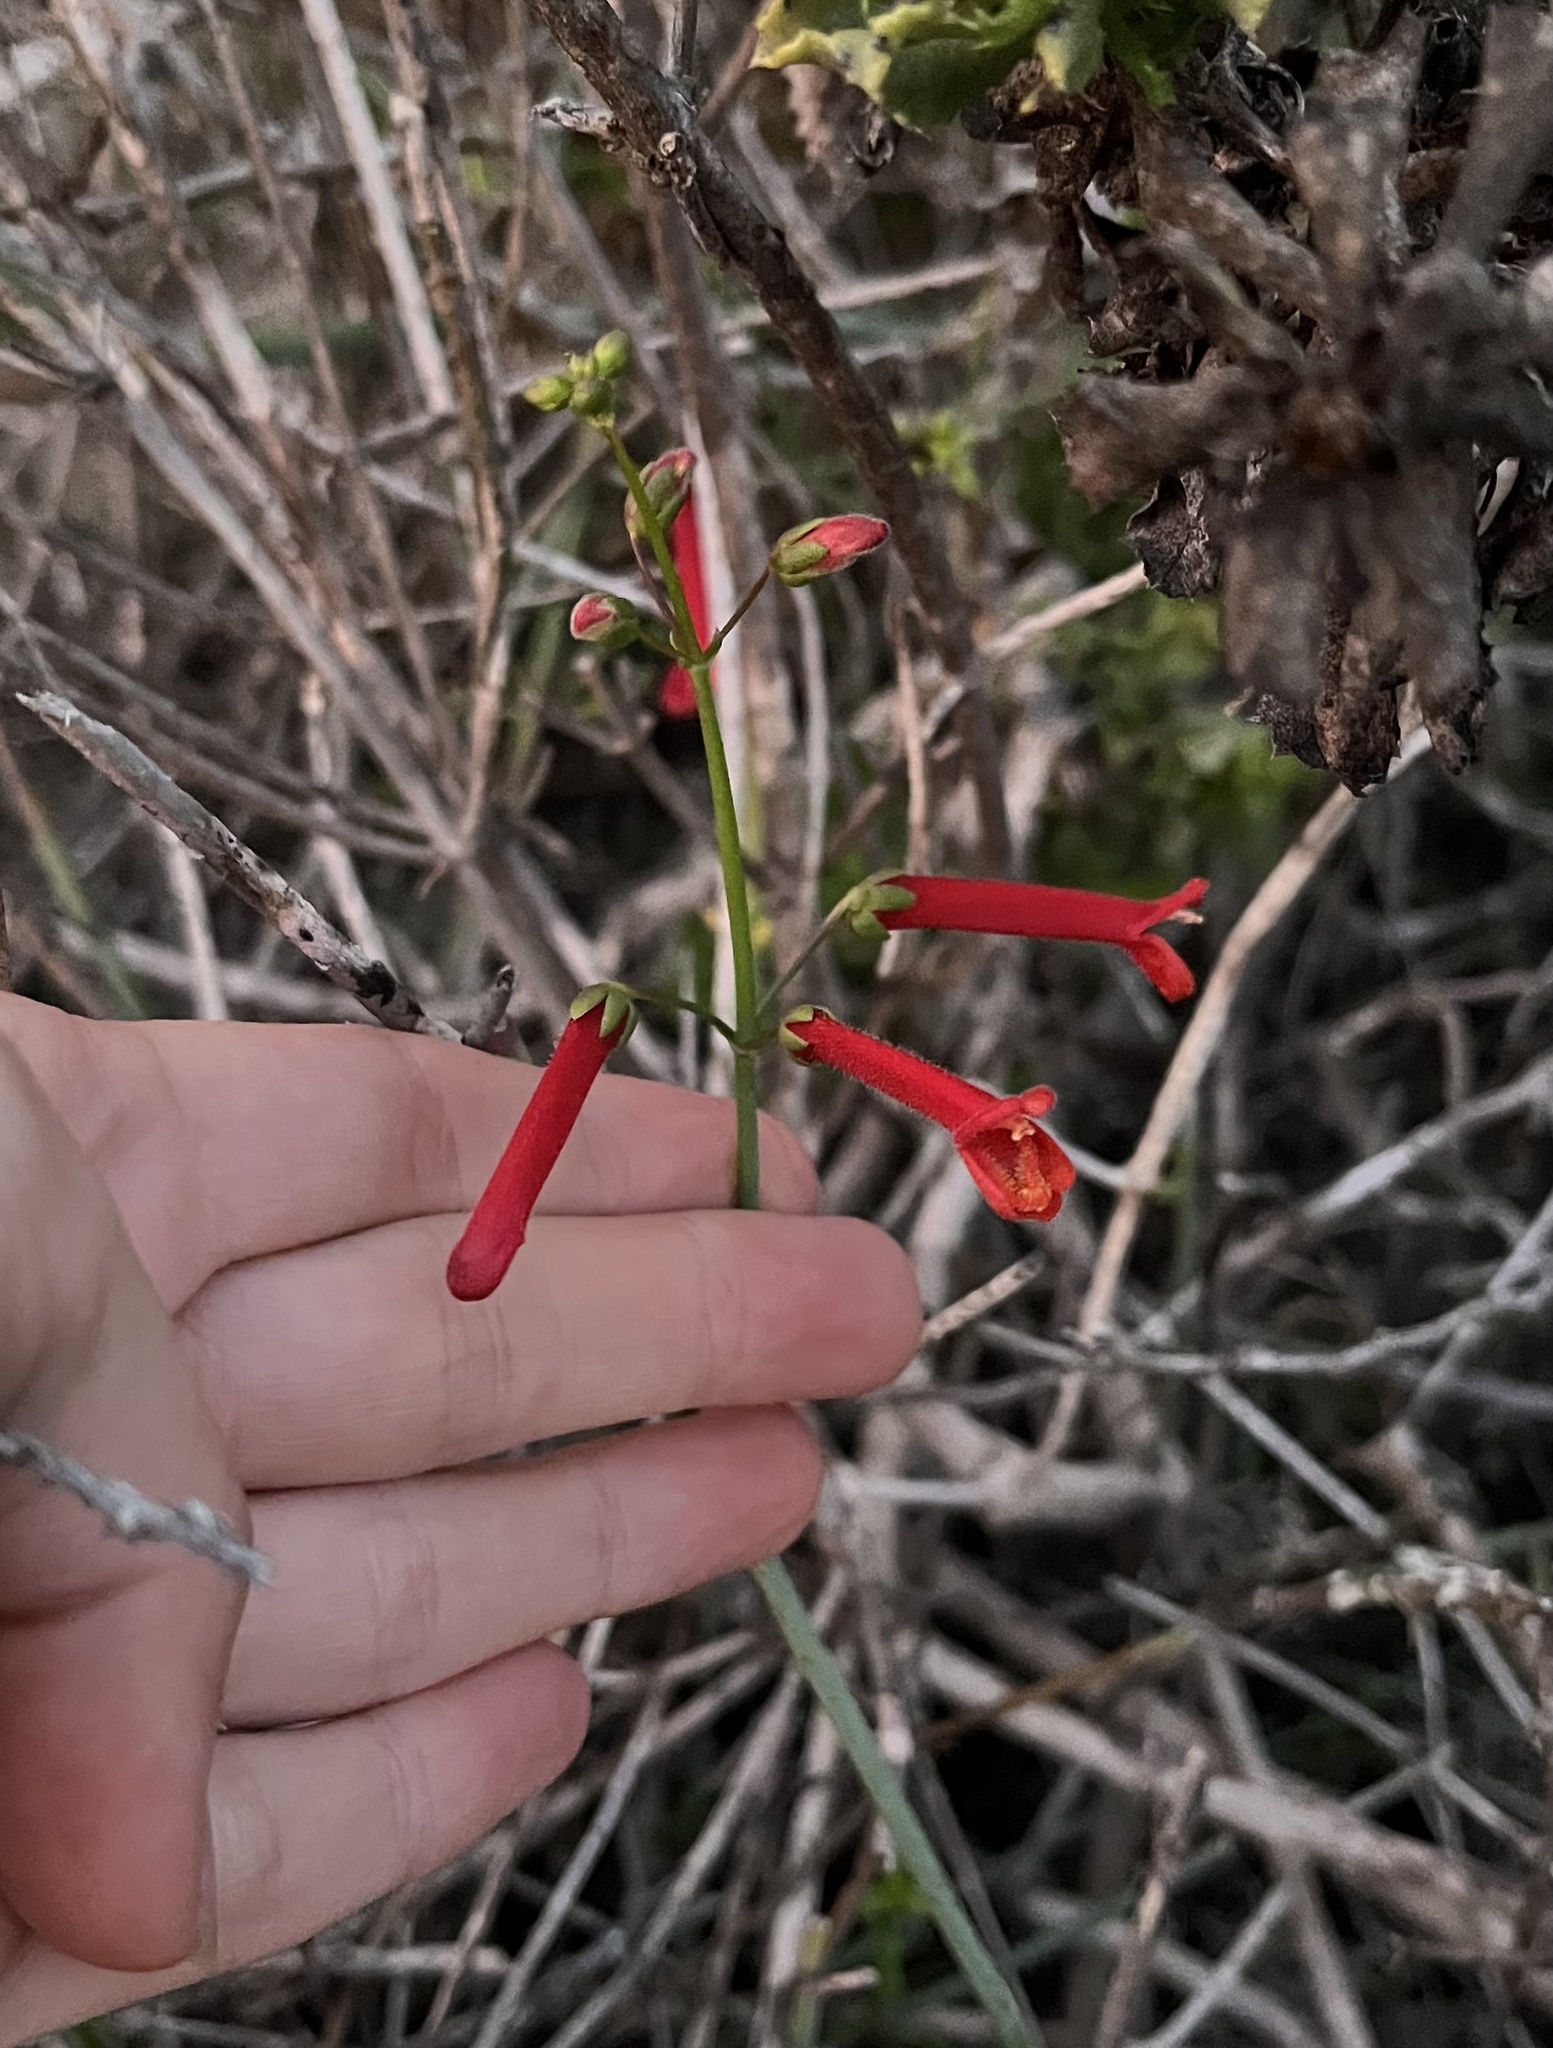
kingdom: Plantae
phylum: Tracheophyta
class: Magnoliopsida
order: Lamiales
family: Plantaginaceae
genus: Gambelia
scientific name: Gambelia juncea
